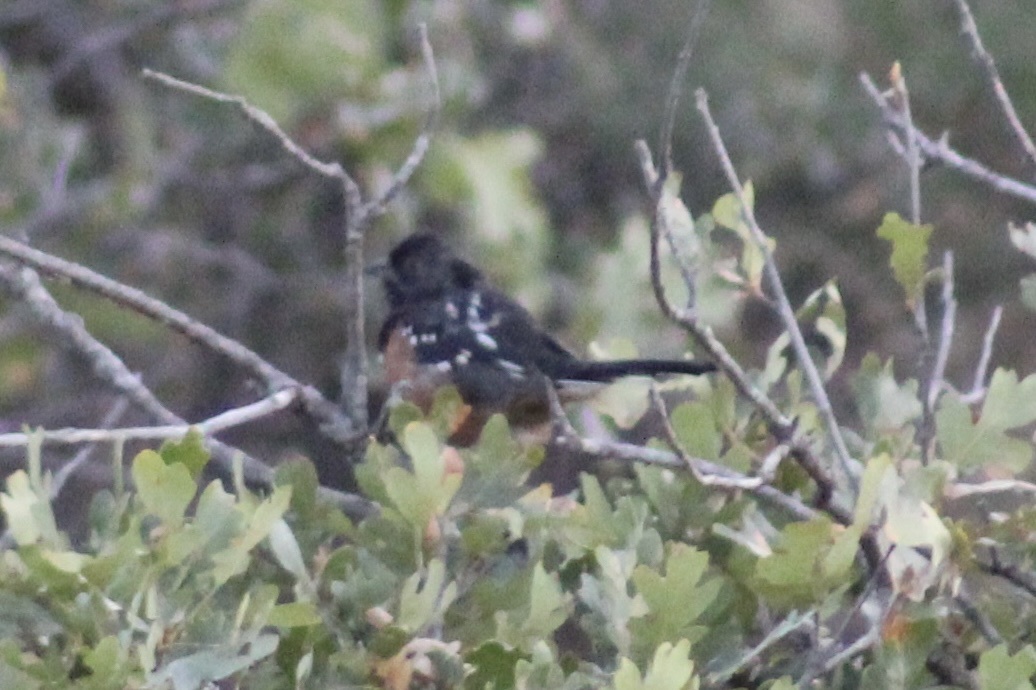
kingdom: Animalia
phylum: Chordata
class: Aves
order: Passeriformes
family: Passerellidae
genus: Pipilo
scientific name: Pipilo maculatus
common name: Spotted towhee
